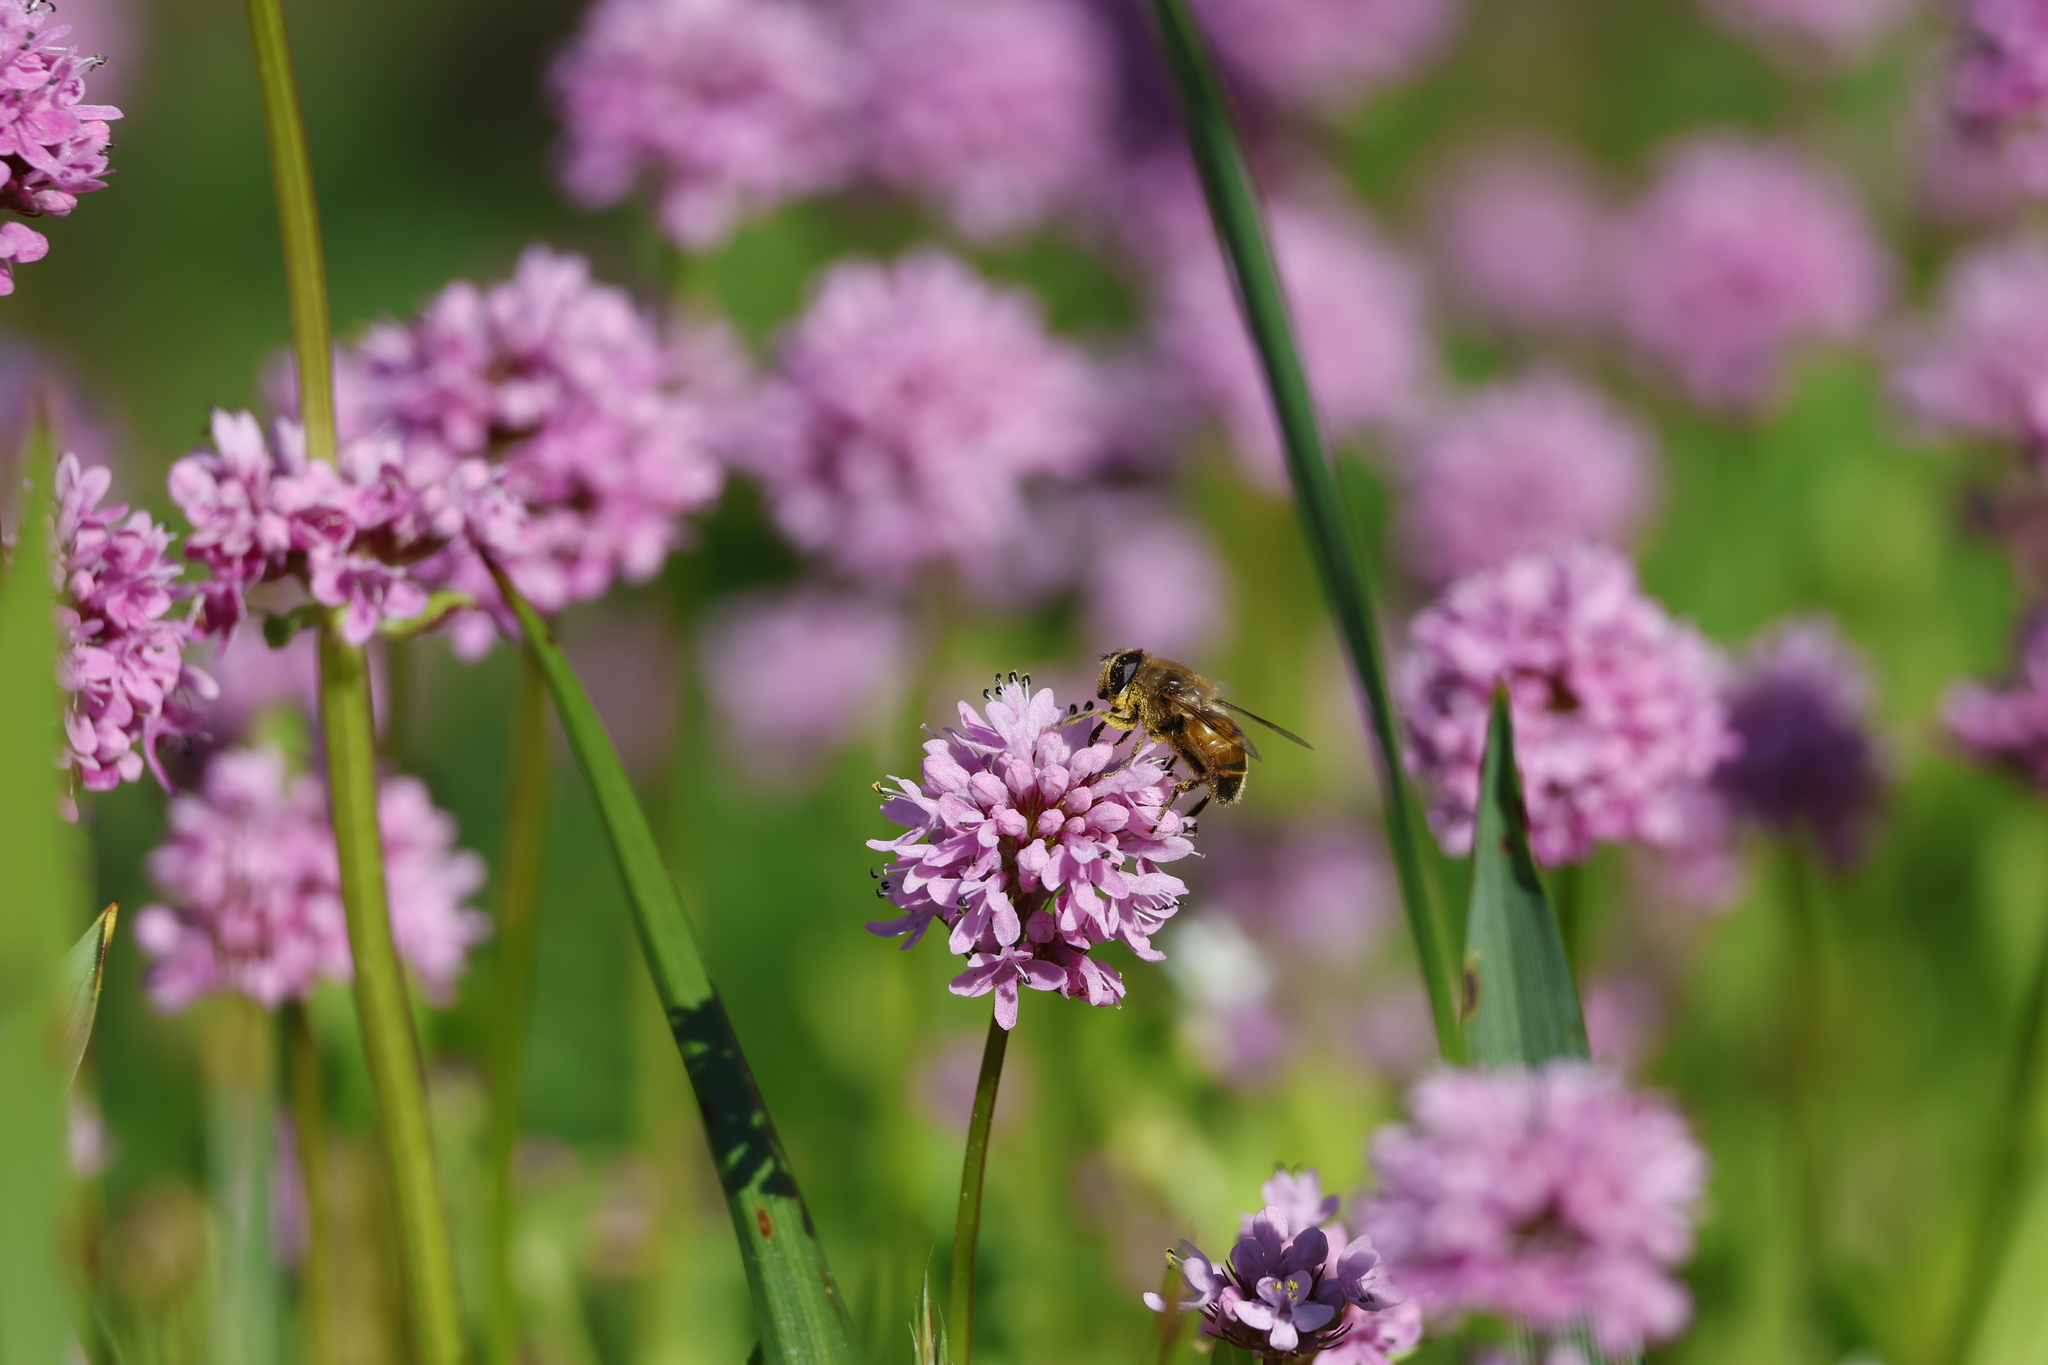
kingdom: Animalia
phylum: Arthropoda
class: Insecta
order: Diptera
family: Syrphidae
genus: Eristalis
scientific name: Eristalis tenax
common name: Drone fly
